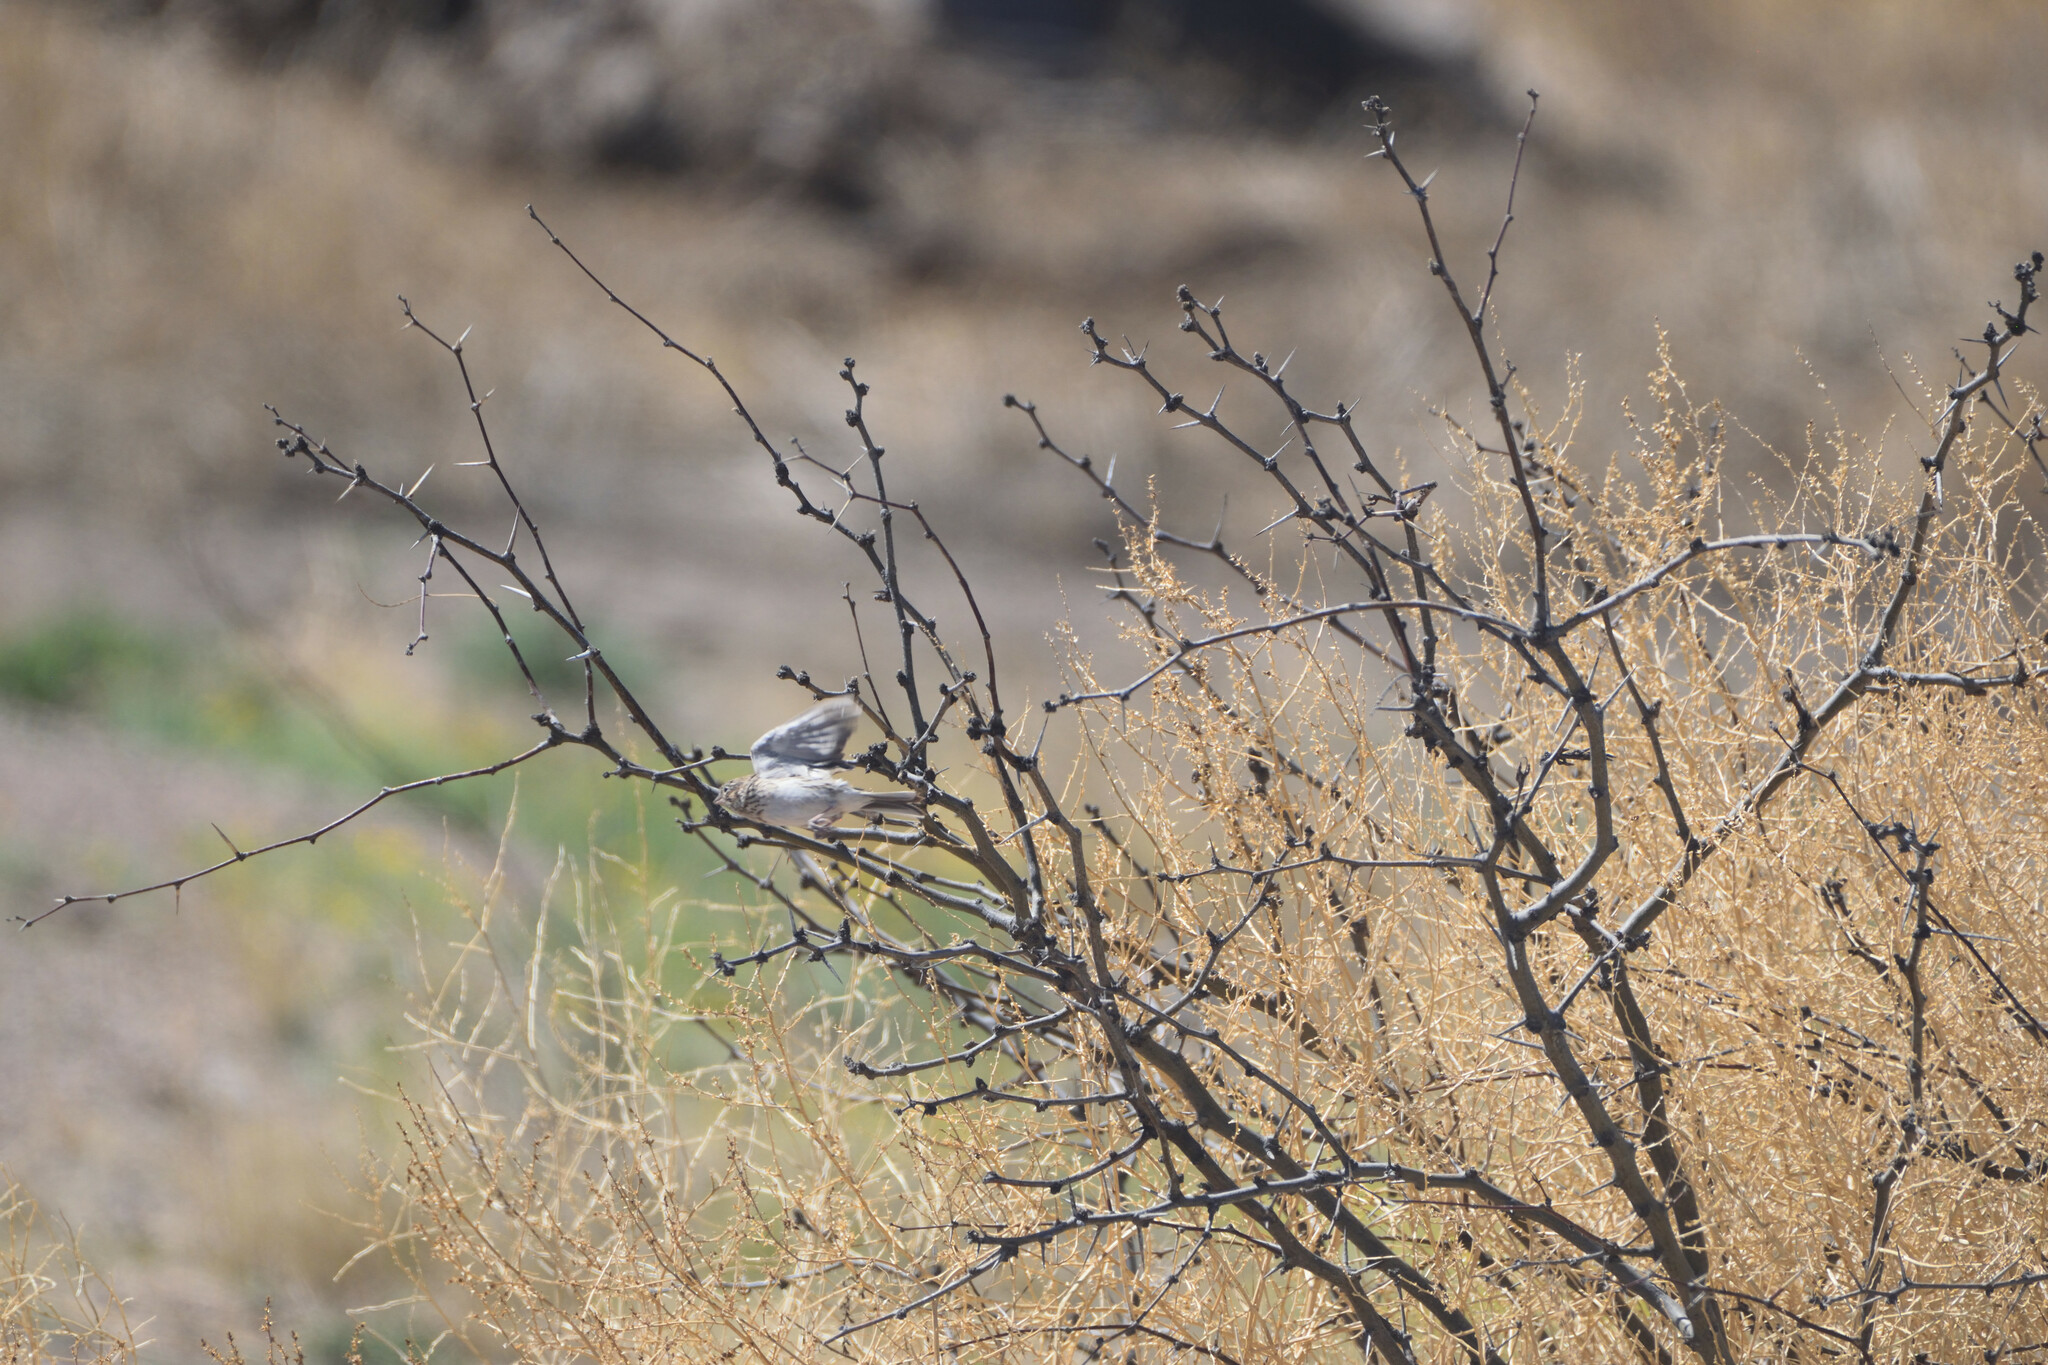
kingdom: Animalia
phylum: Chordata
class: Aves
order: Passeriformes
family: Passerellidae
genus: Pooecetes
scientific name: Pooecetes gramineus
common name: Vesper sparrow
